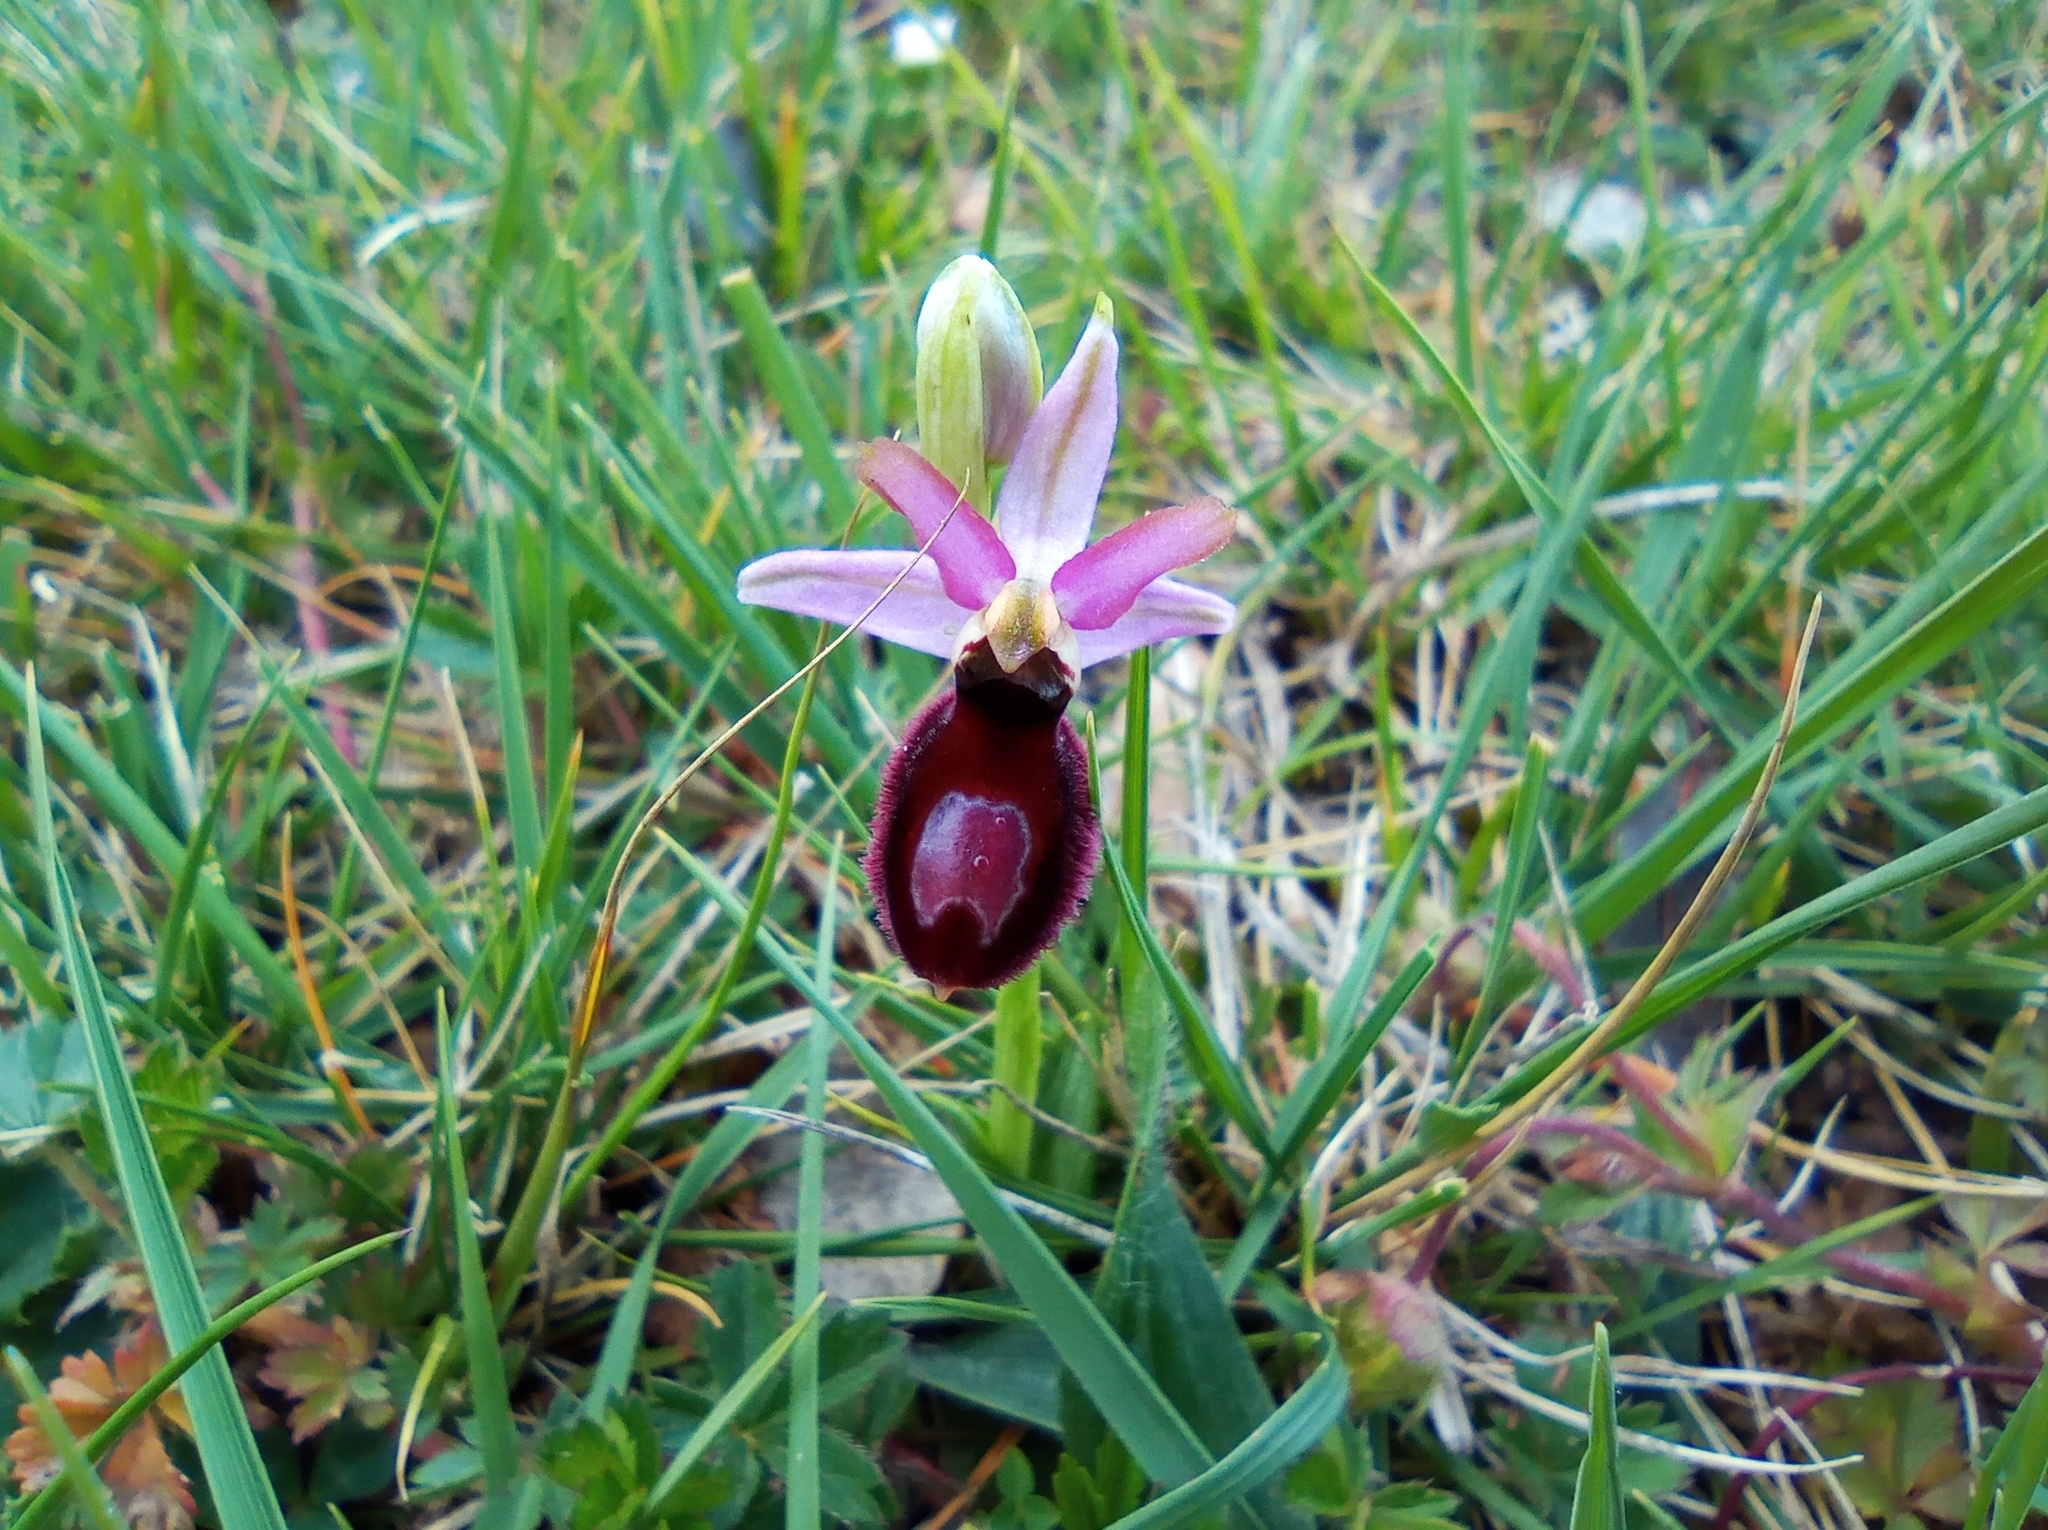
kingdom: Plantae
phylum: Tracheophyta
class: Liliopsida
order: Asparagales
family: Orchidaceae
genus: Ophrys
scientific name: Ophrys flavicans
